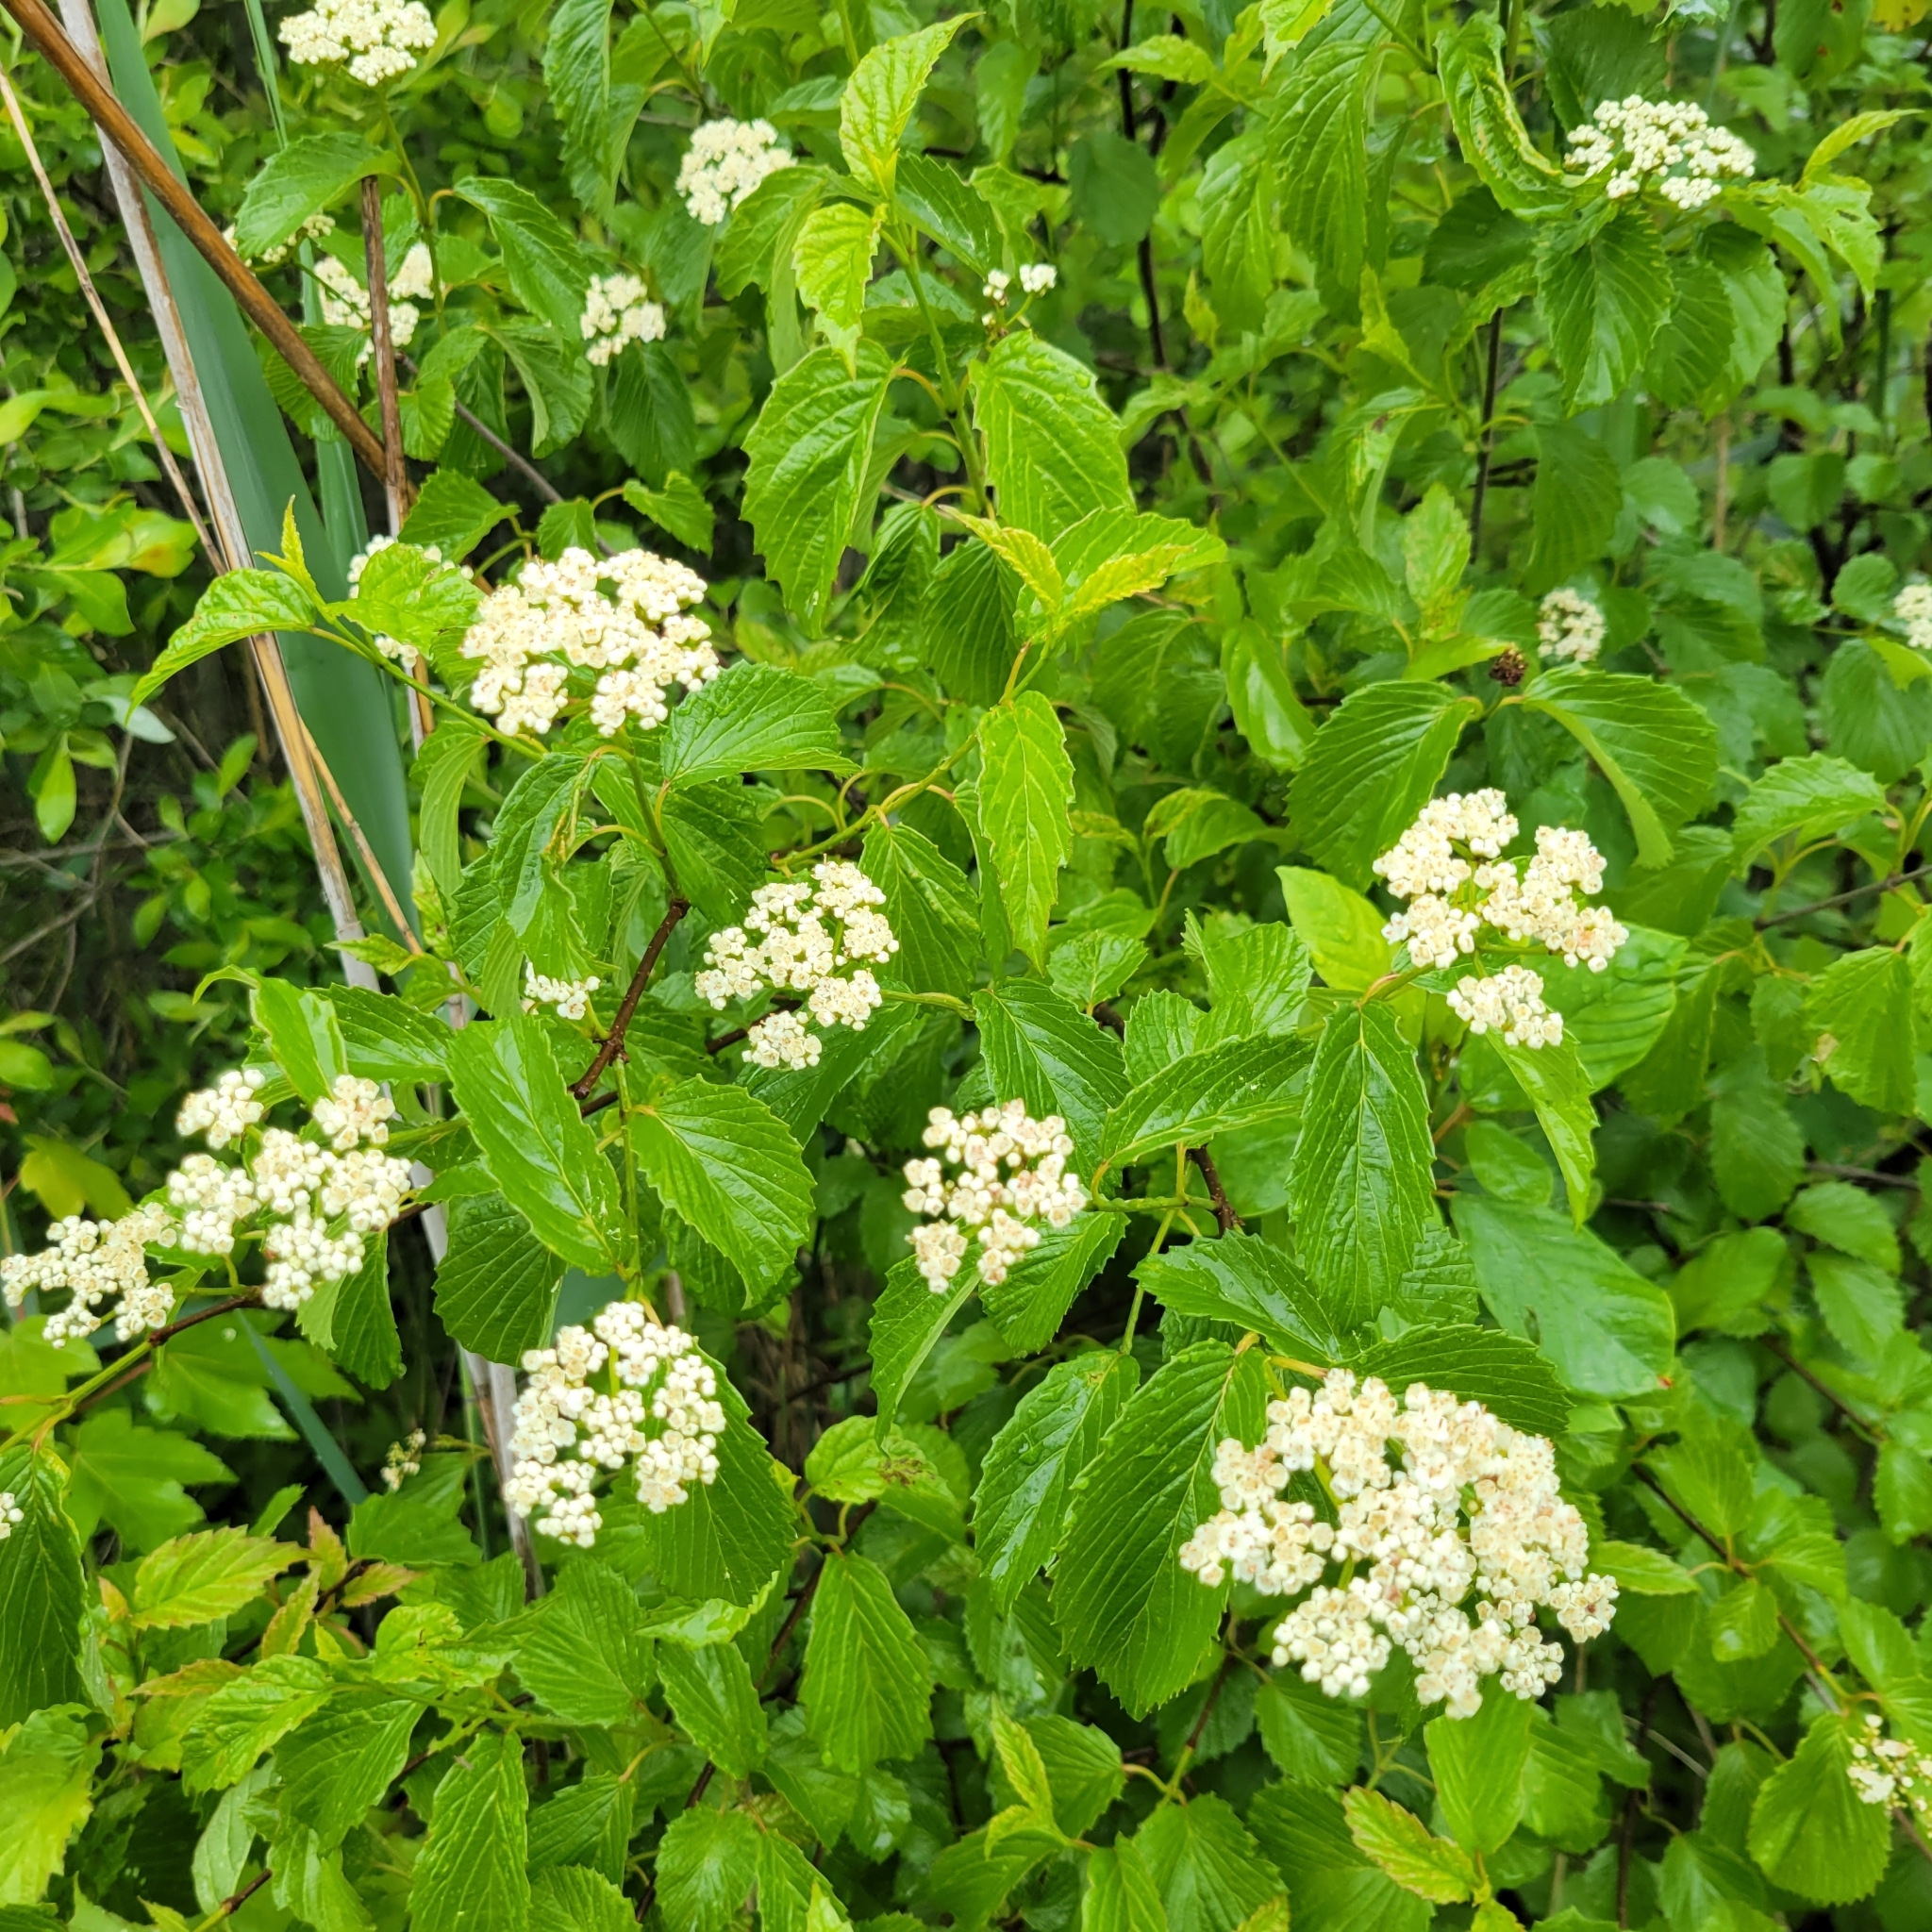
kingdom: Plantae
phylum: Tracheophyta
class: Magnoliopsida
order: Dipsacales
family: Viburnaceae
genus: Viburnum
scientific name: Viburnum dentatum
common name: Arrow-wood
